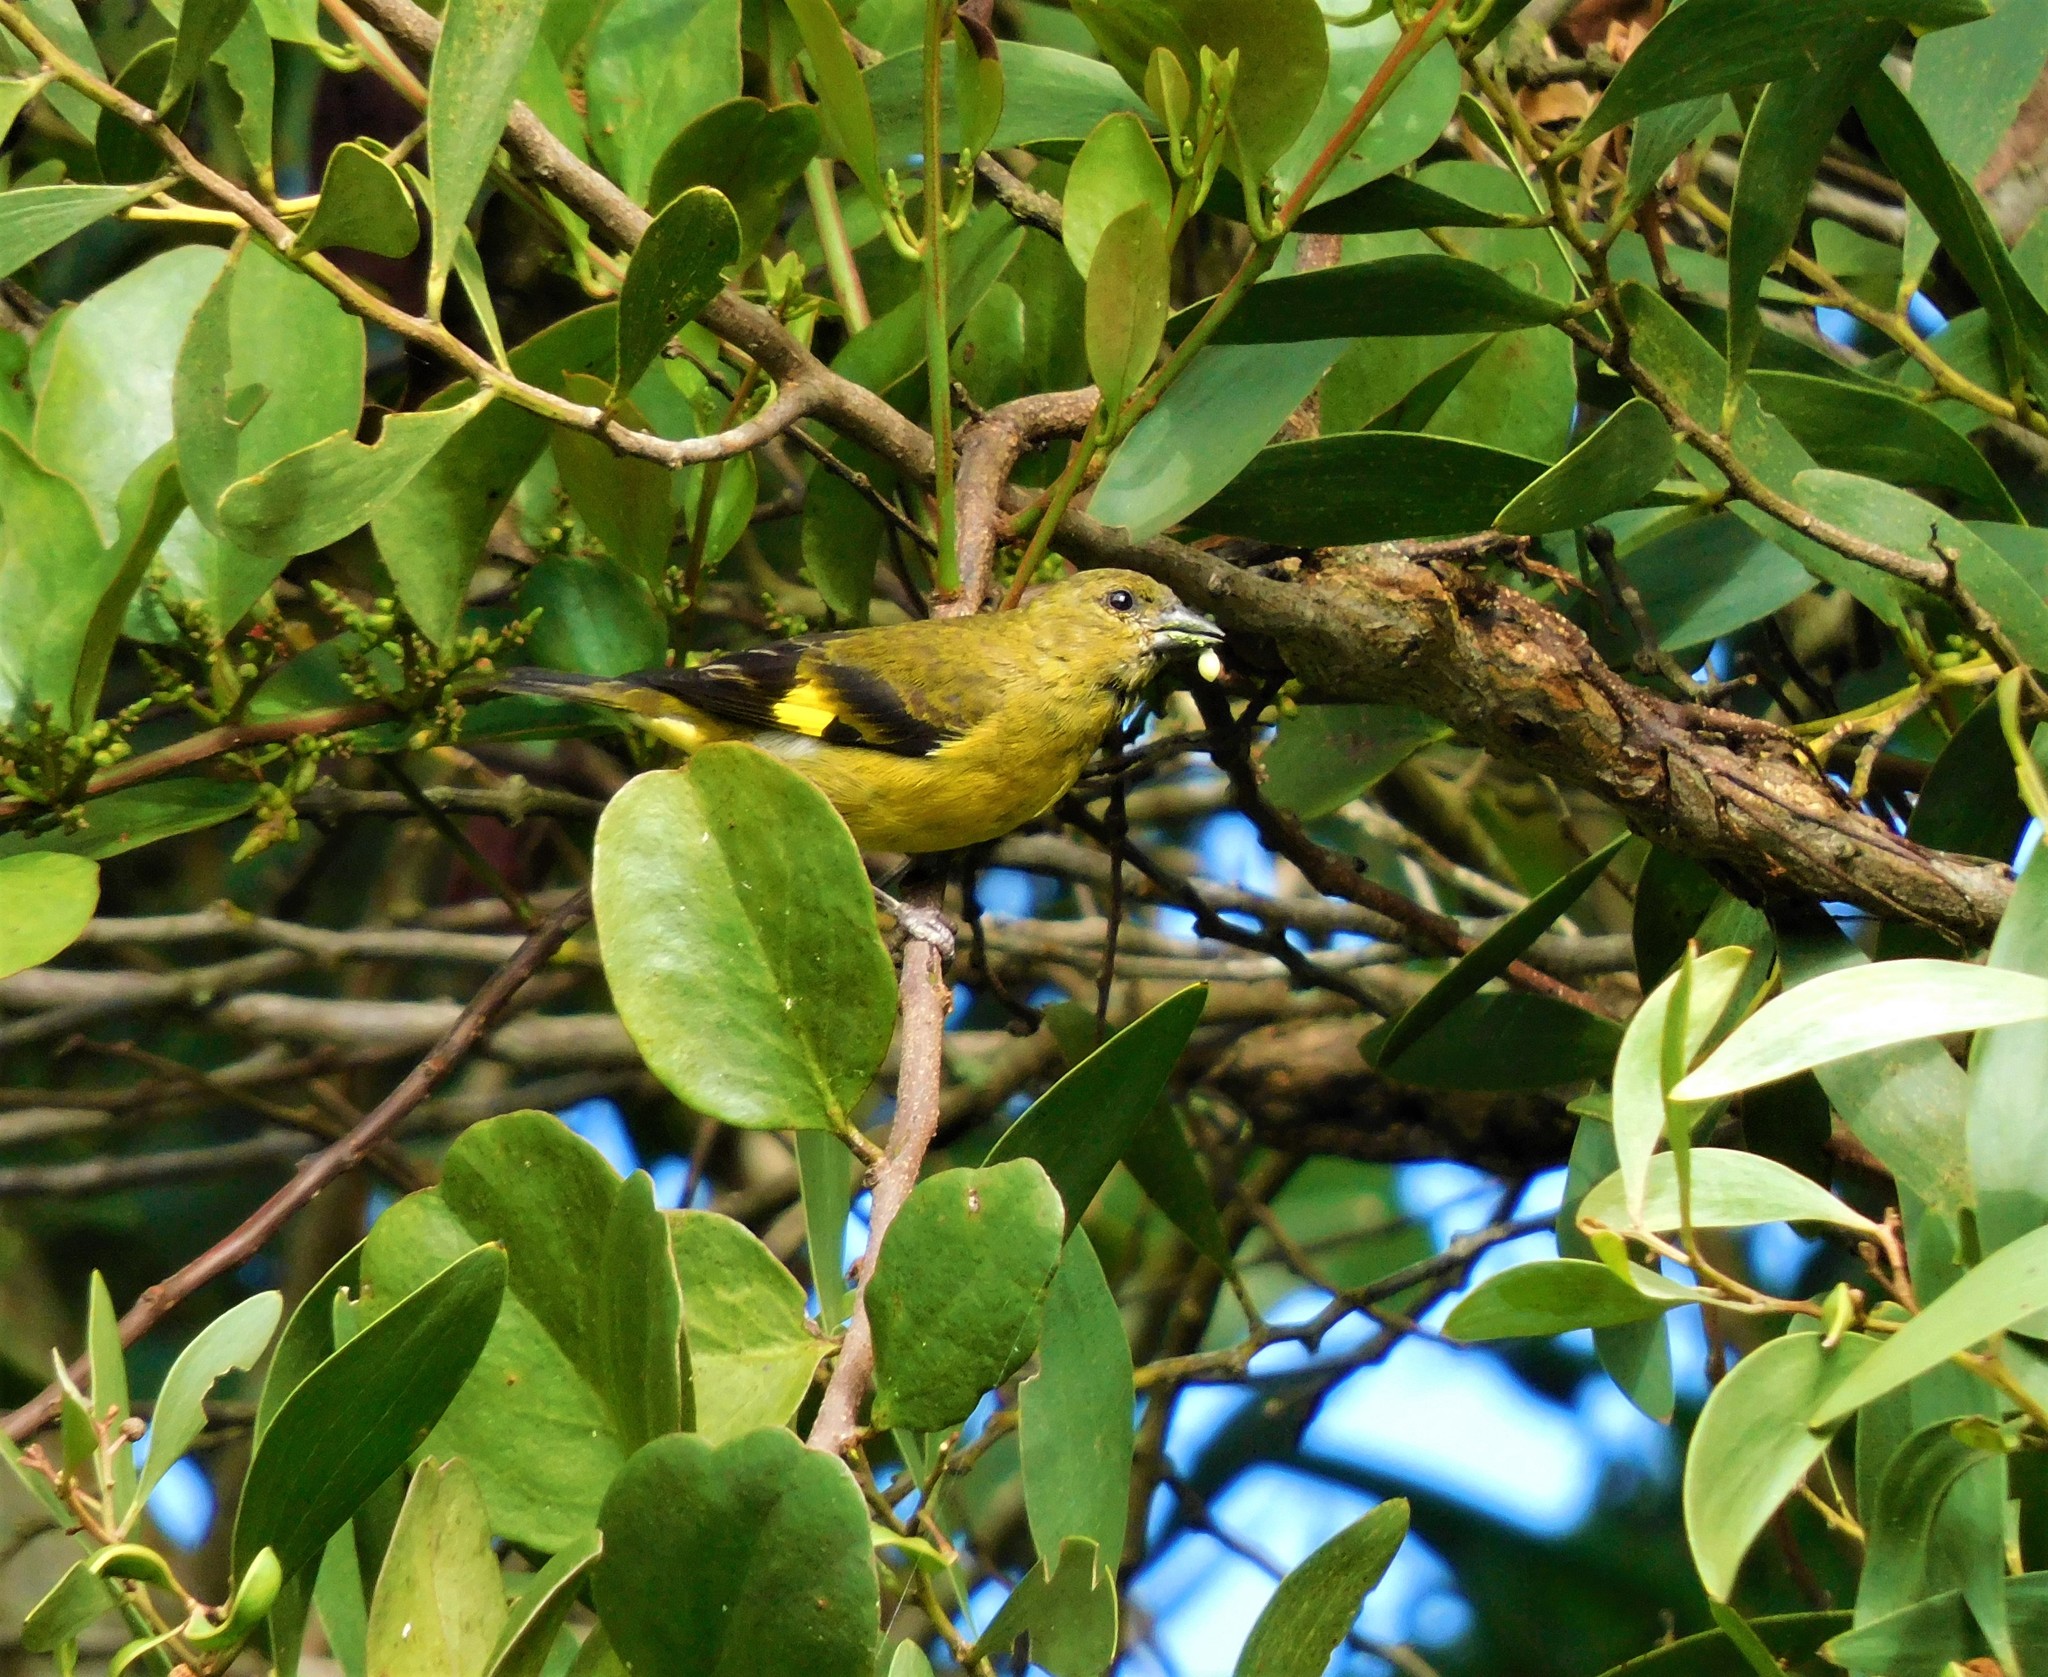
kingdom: Animalia
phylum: Chordata
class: Aves
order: Passeriformes
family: Fringillidae
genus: Spinus
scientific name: Spinus xanthogastrus
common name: Yellow-bellied siskin
